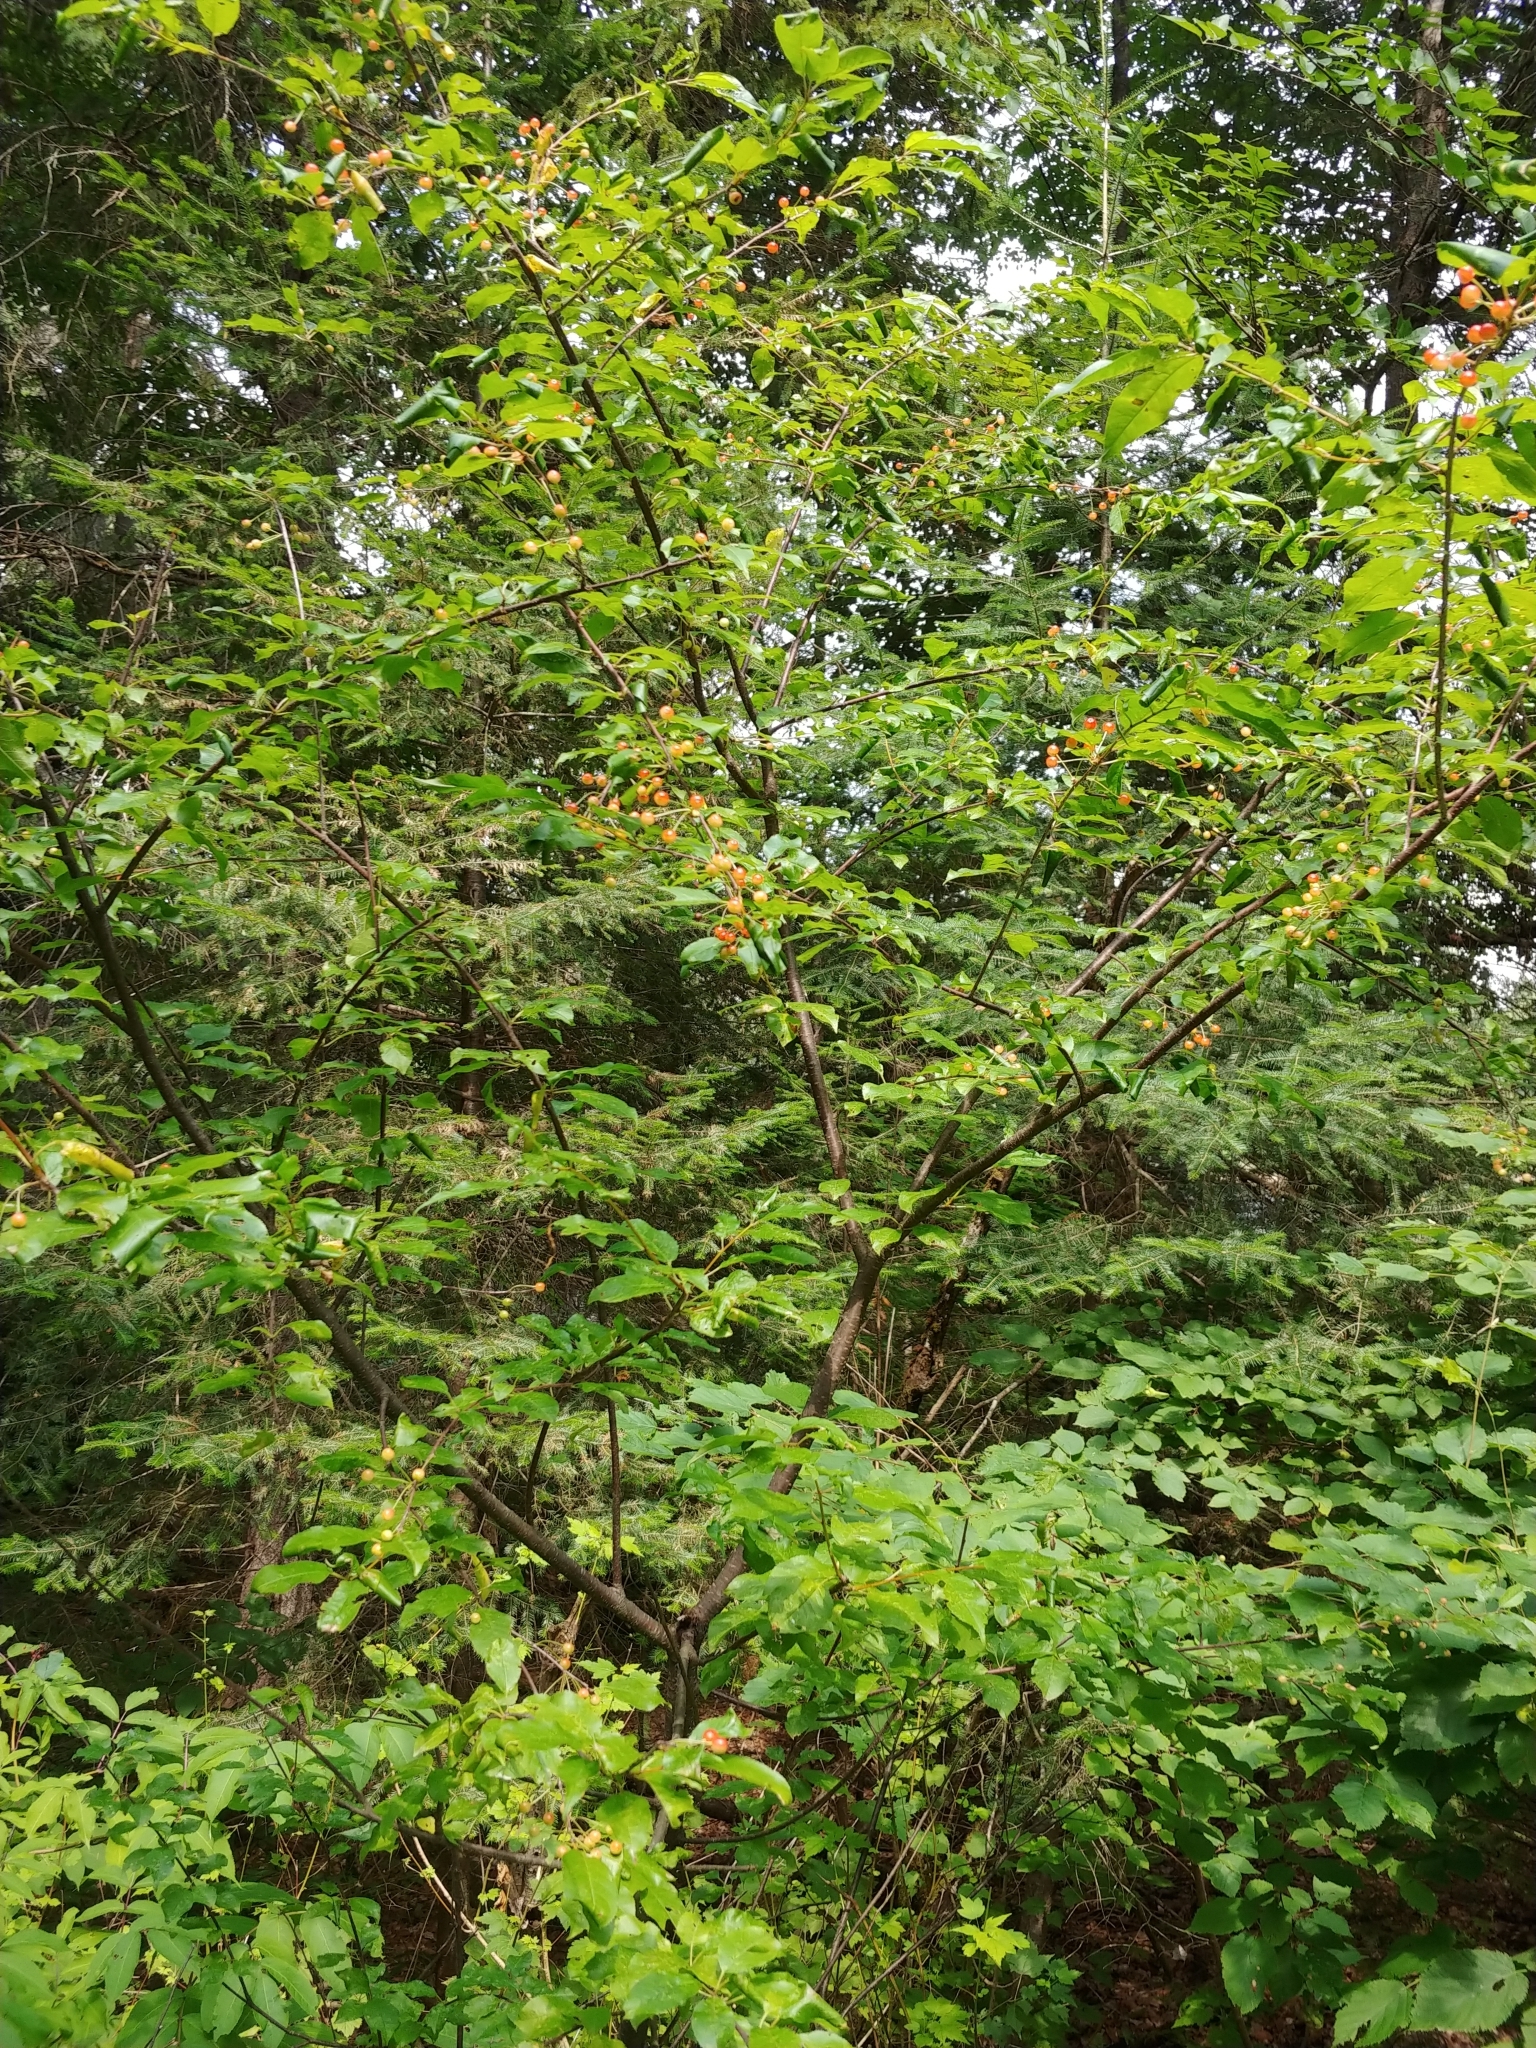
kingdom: Plantae
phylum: Tracheophyta
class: Magnoliopsida
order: Rosales
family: Rosaceae
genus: Prunus
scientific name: Prunus pensylvanica
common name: Pin cherry
